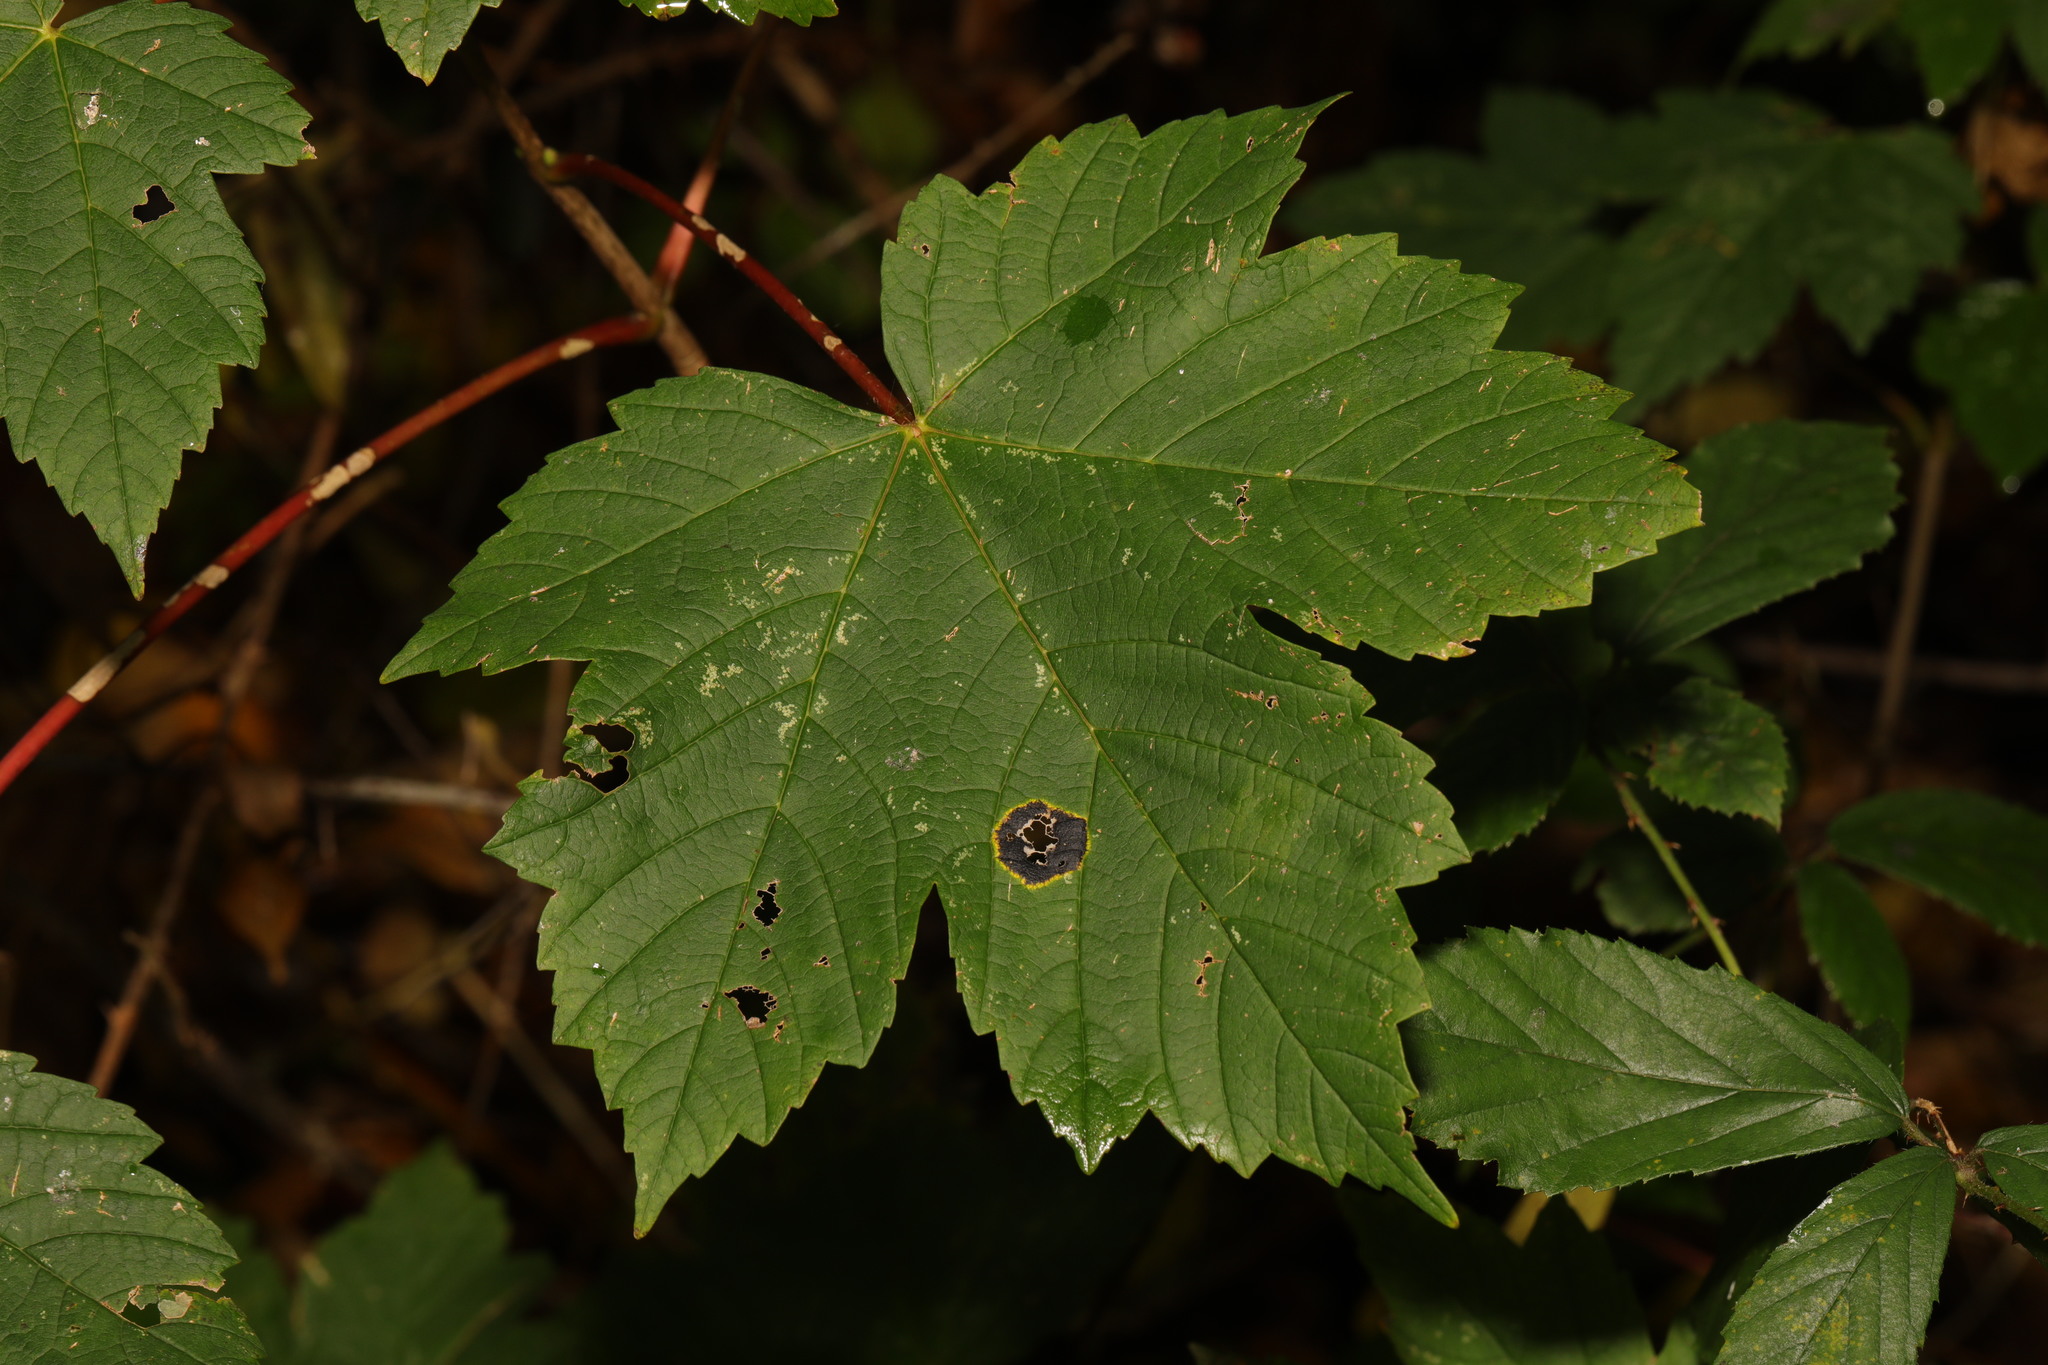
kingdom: Plantae
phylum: Tracheophyta
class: Magnoliopsida
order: Sapindales
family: Sapindaceae
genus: Acer
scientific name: Acer pseudoplatanus
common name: Sycamore
